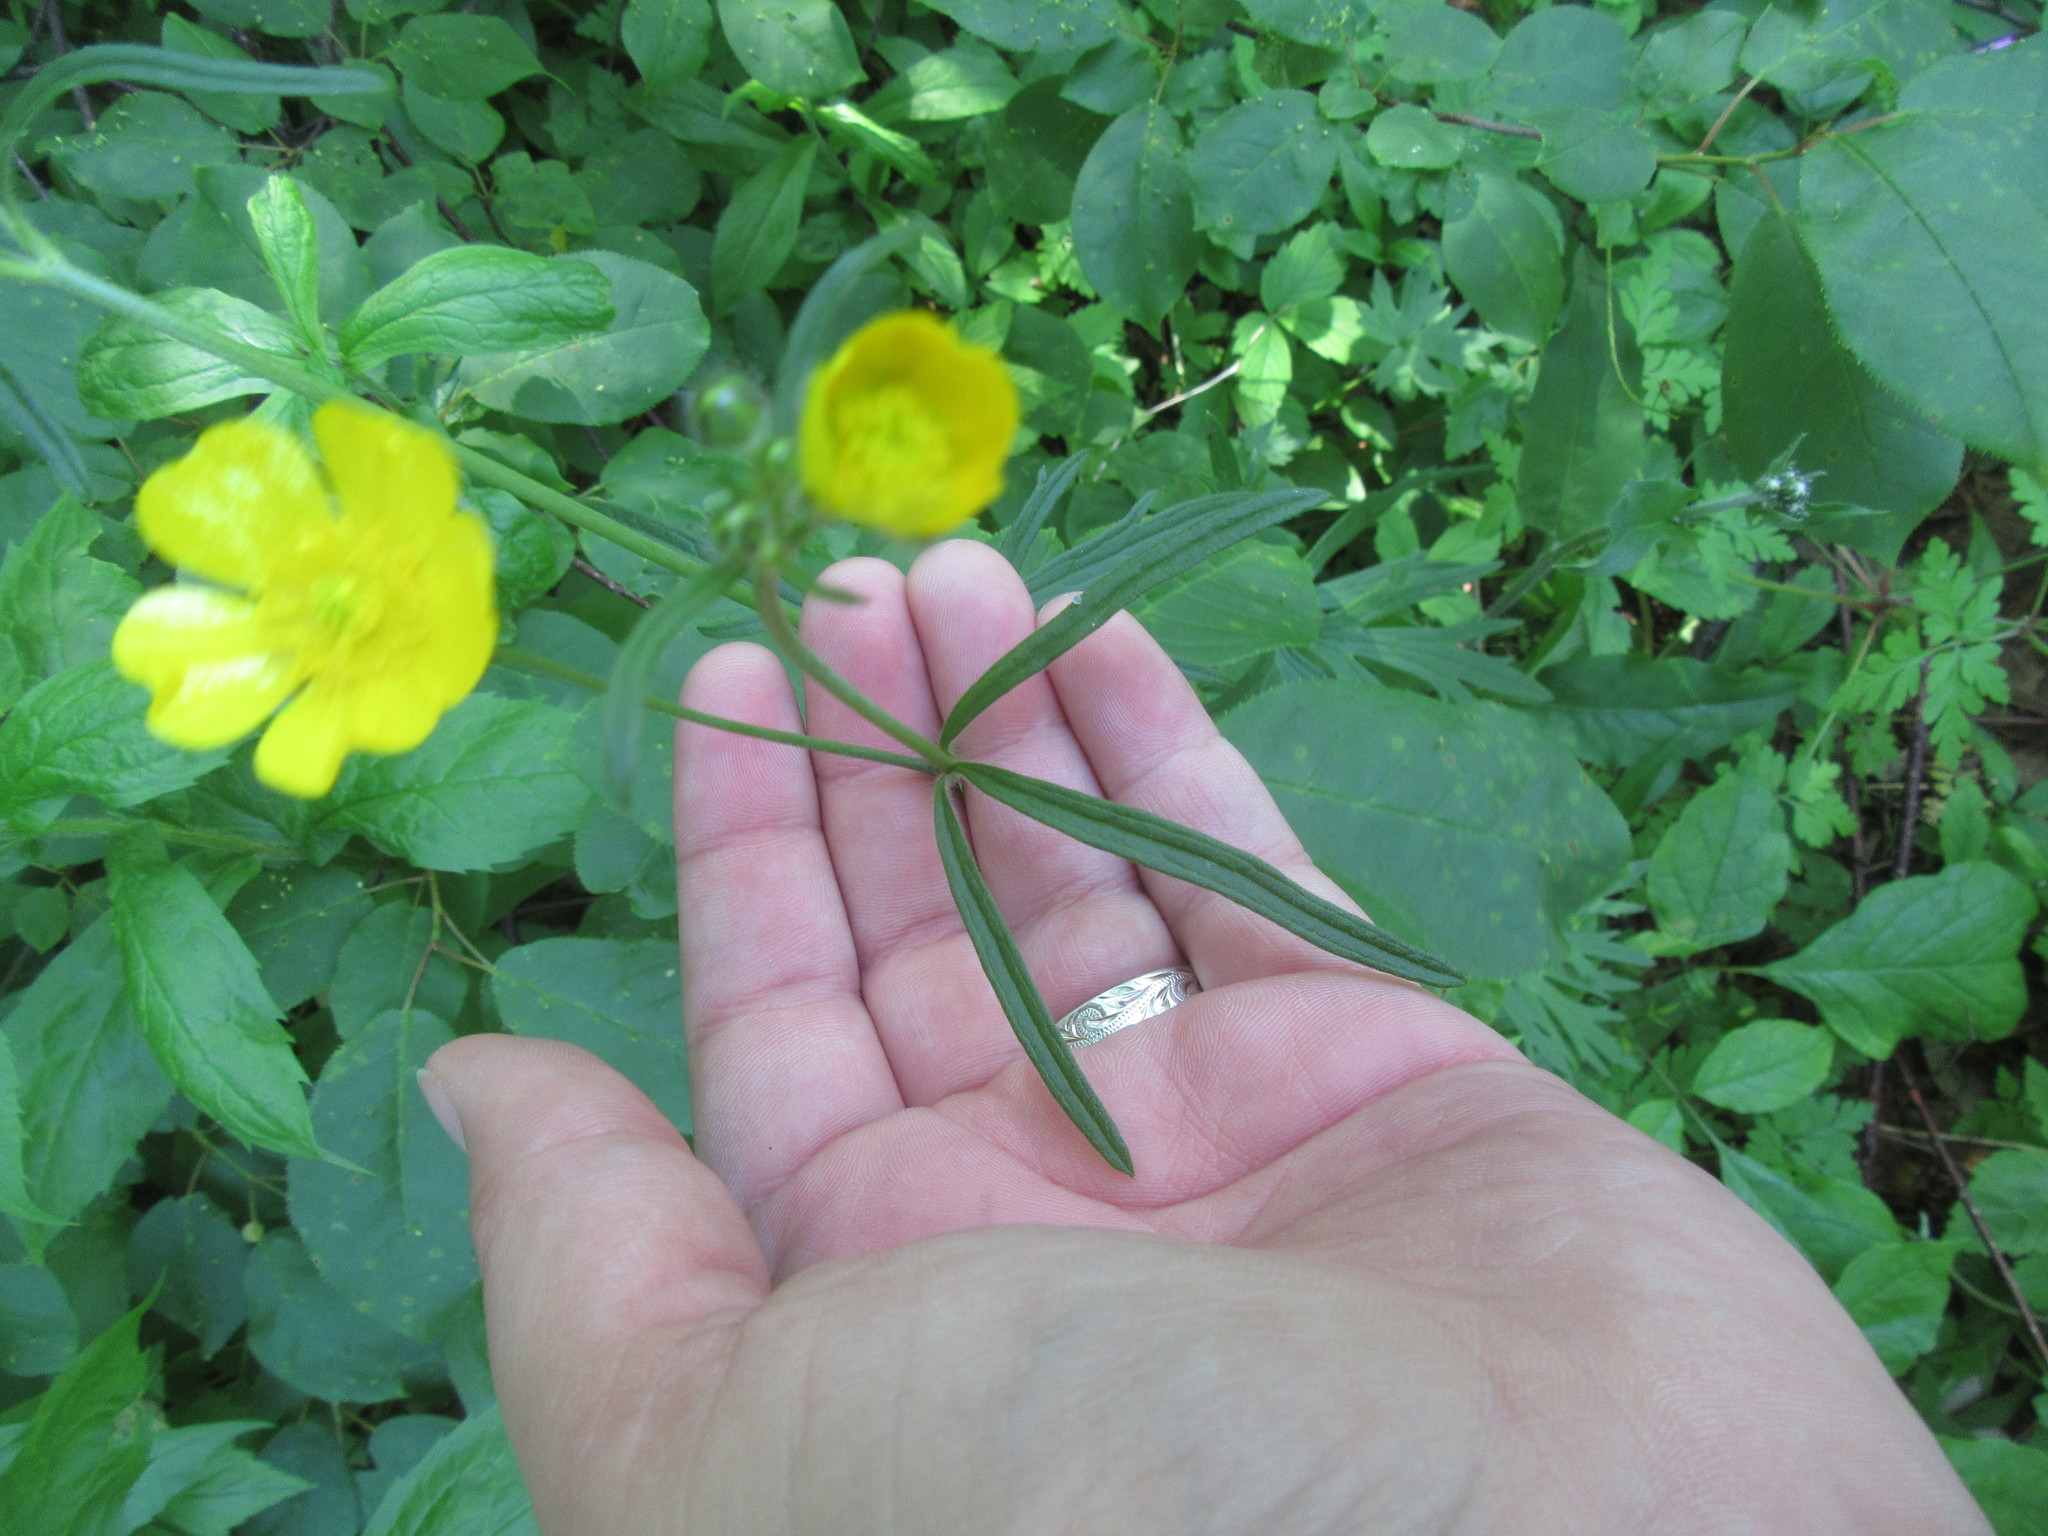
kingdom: Plantae
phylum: Tracheophyta
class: Magnoliopsida
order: Ranunculales
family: Ranunculaceae
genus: Ranunculus
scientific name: Ranunculus acris
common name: Meadow buttercup
